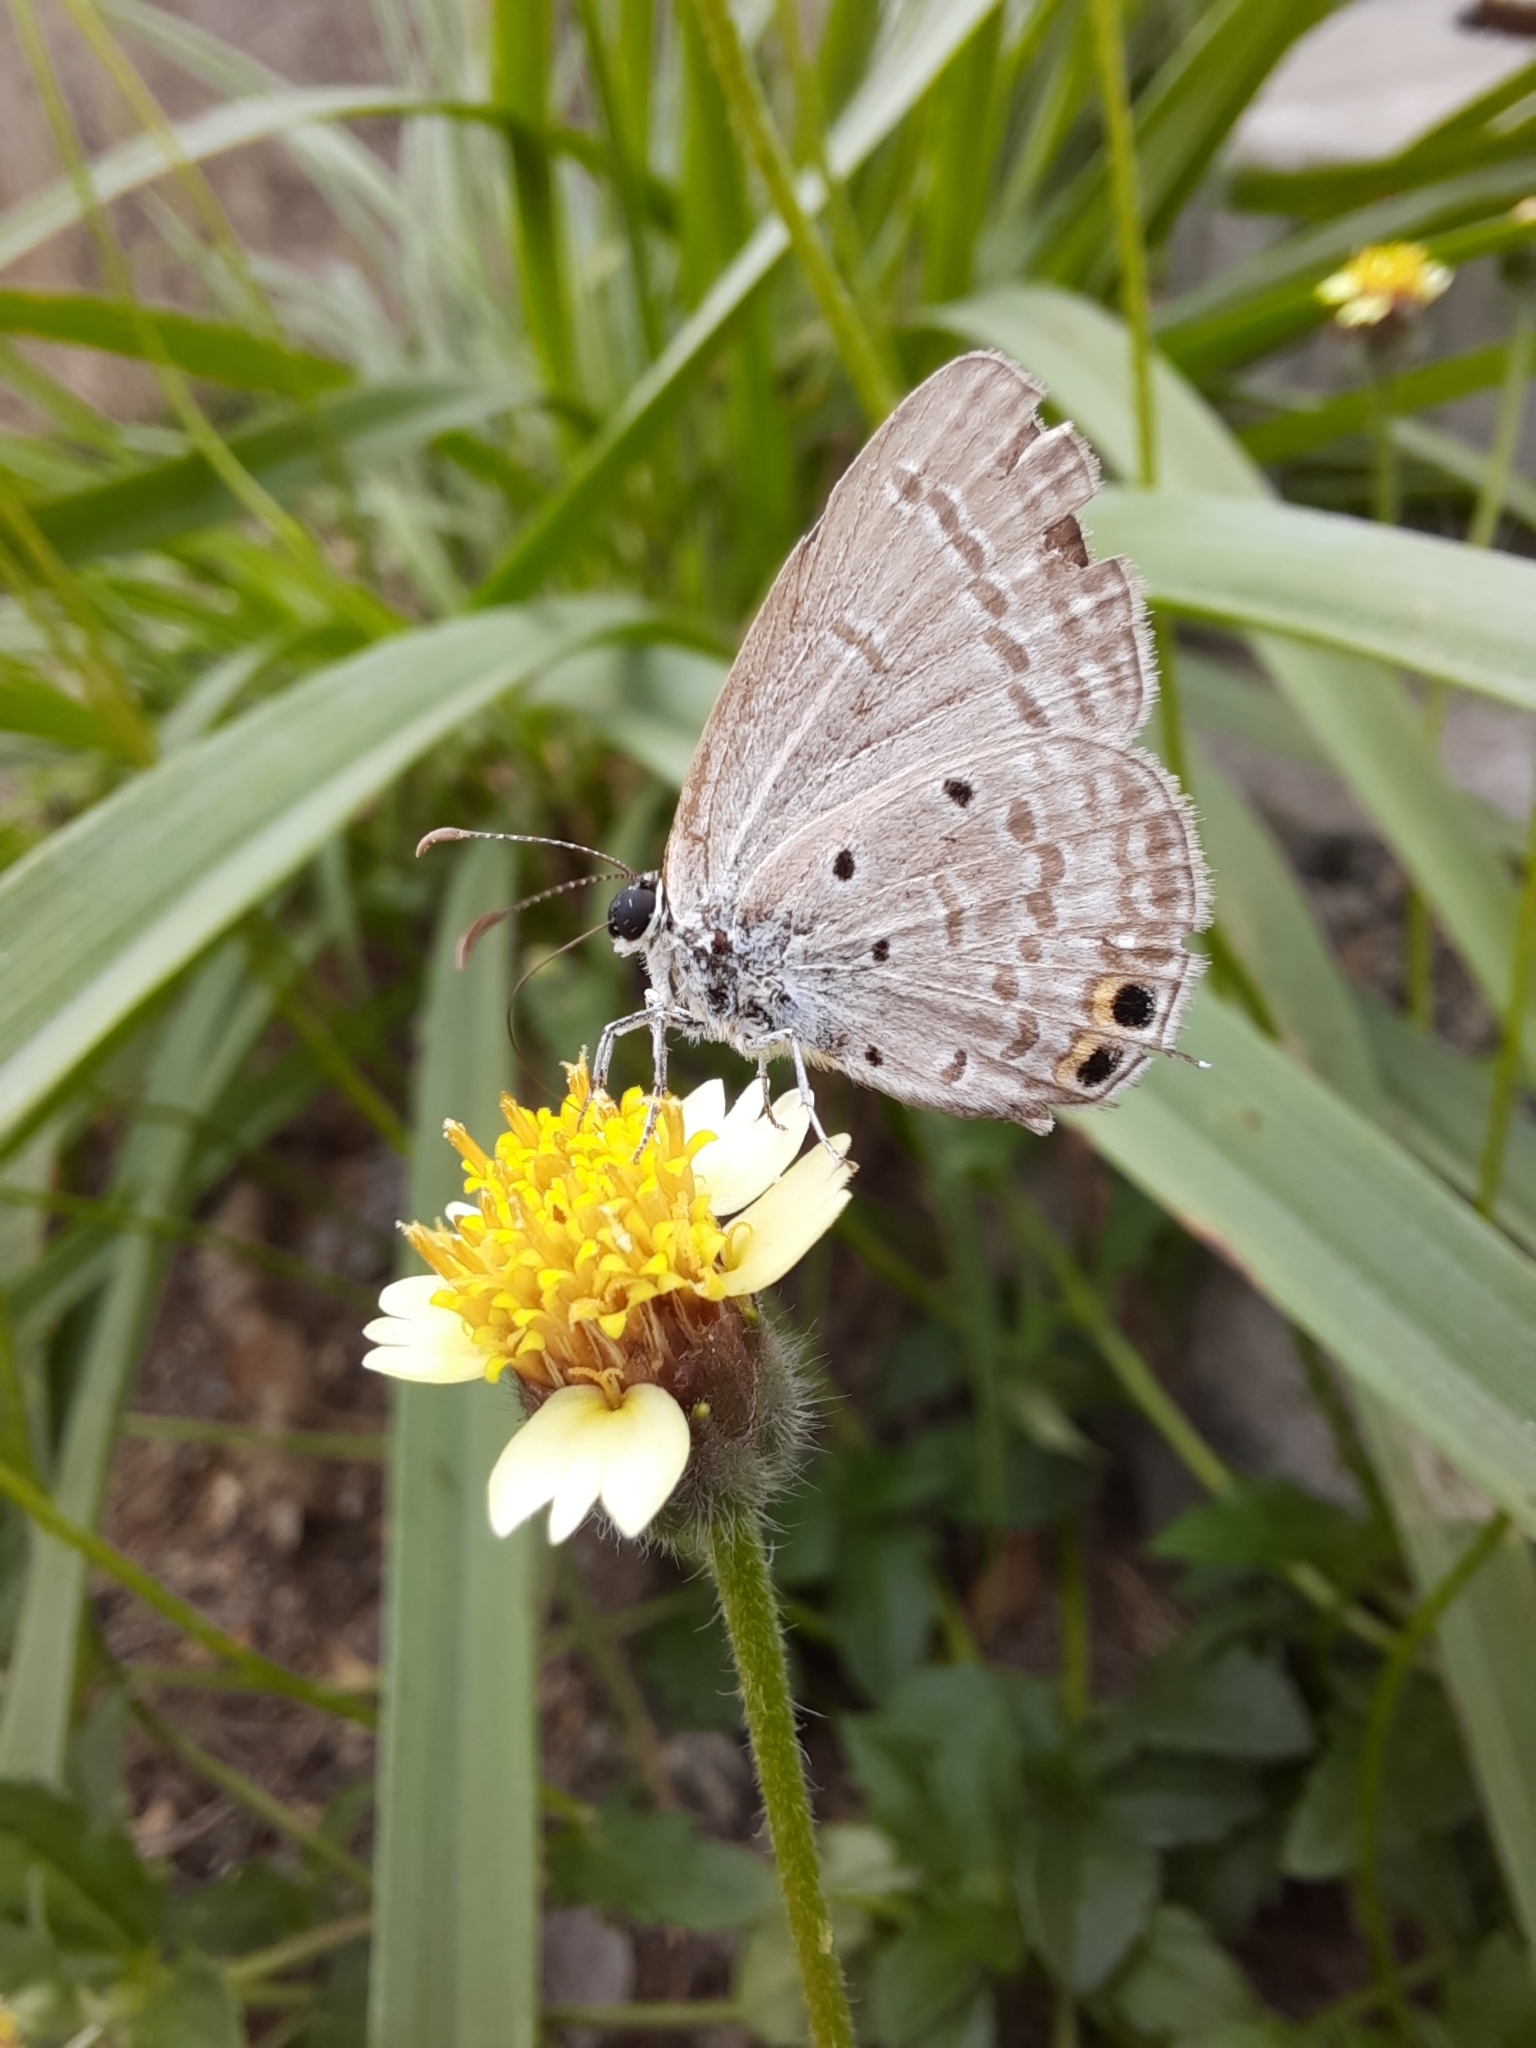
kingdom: Animalia
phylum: Arthropoda
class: Insecta
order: Lepidoptera
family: Lycaenidae
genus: Euchrysops
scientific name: Euchrysops cnejus
